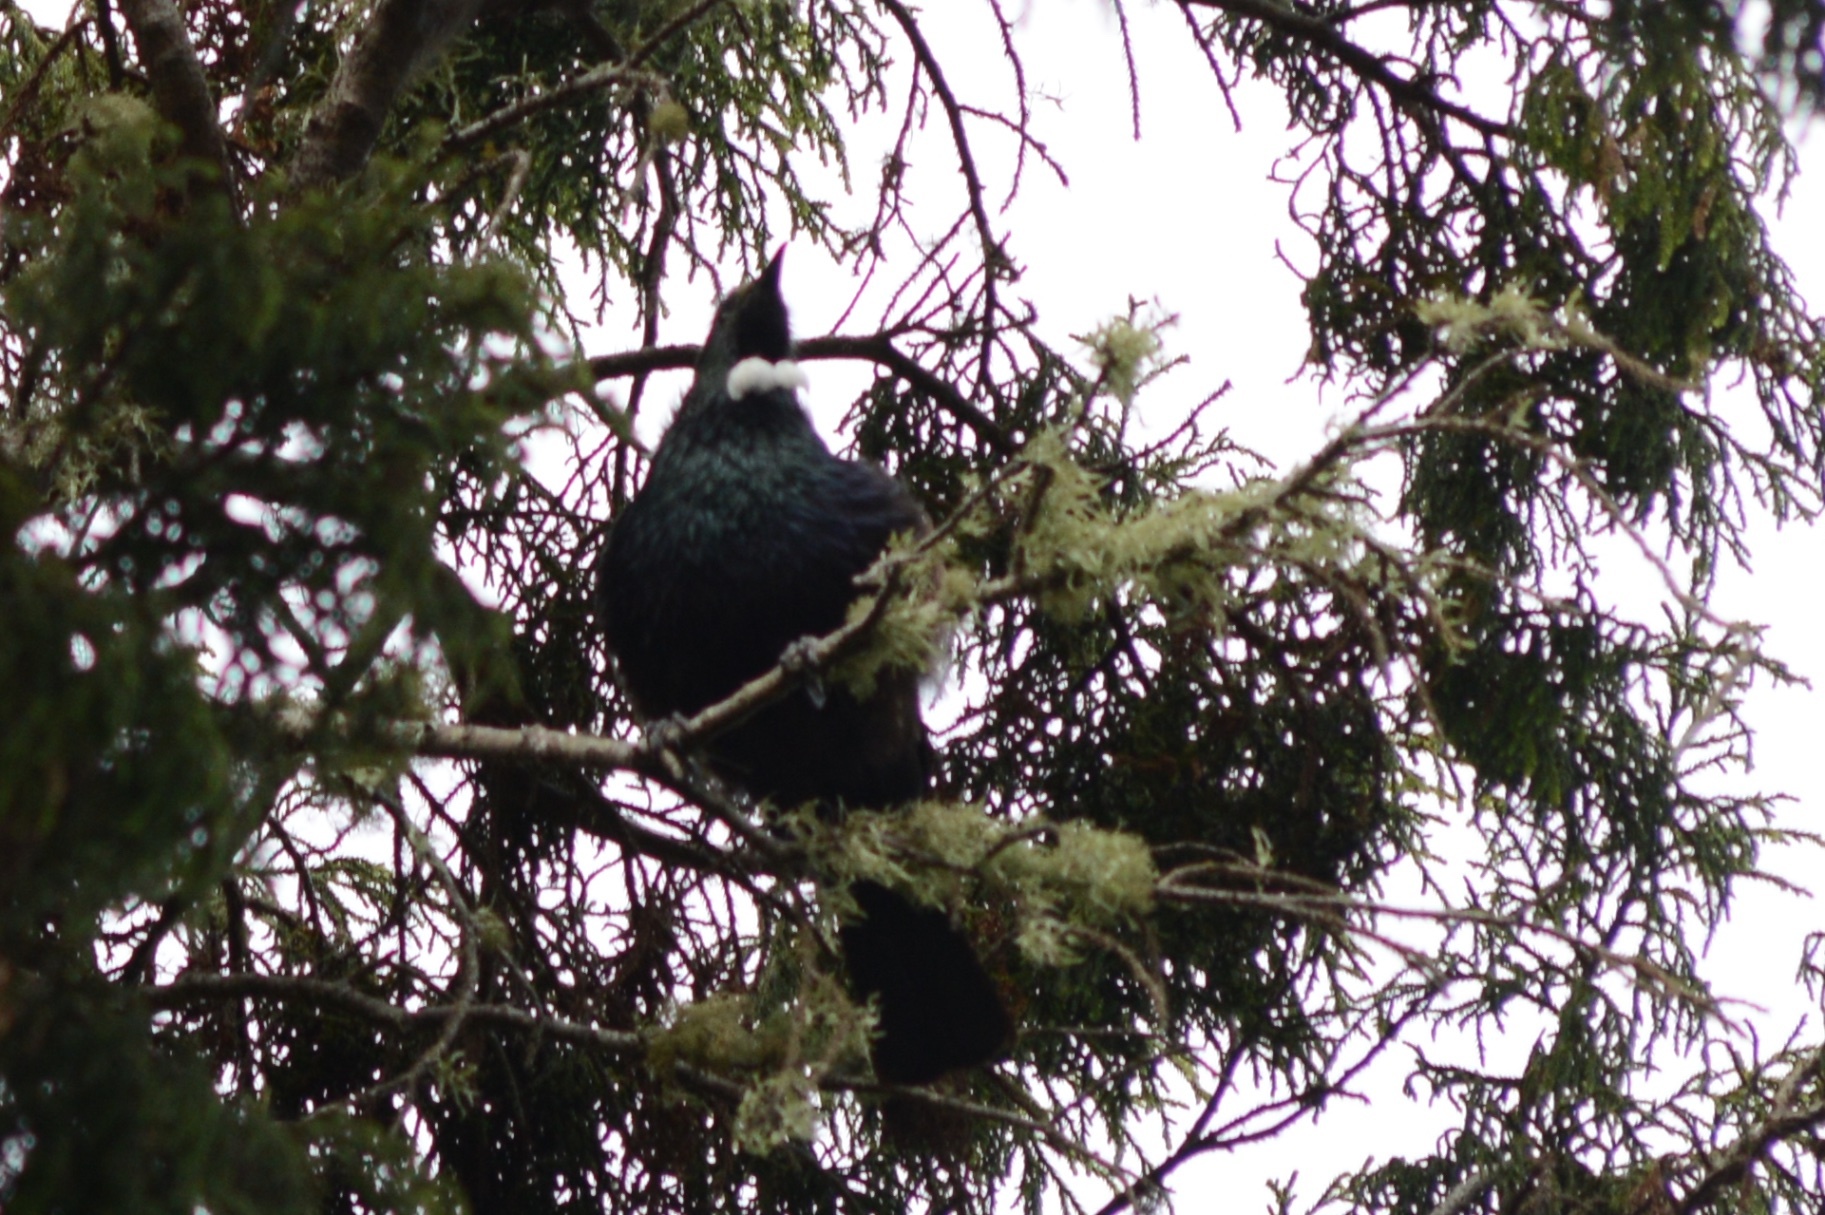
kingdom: Animalia
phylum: Chordata
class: Aves
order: Passeriformes
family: Meliphagidae
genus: Prosthemadera
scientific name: Prosthemadera novaeseelandiae
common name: Tui
